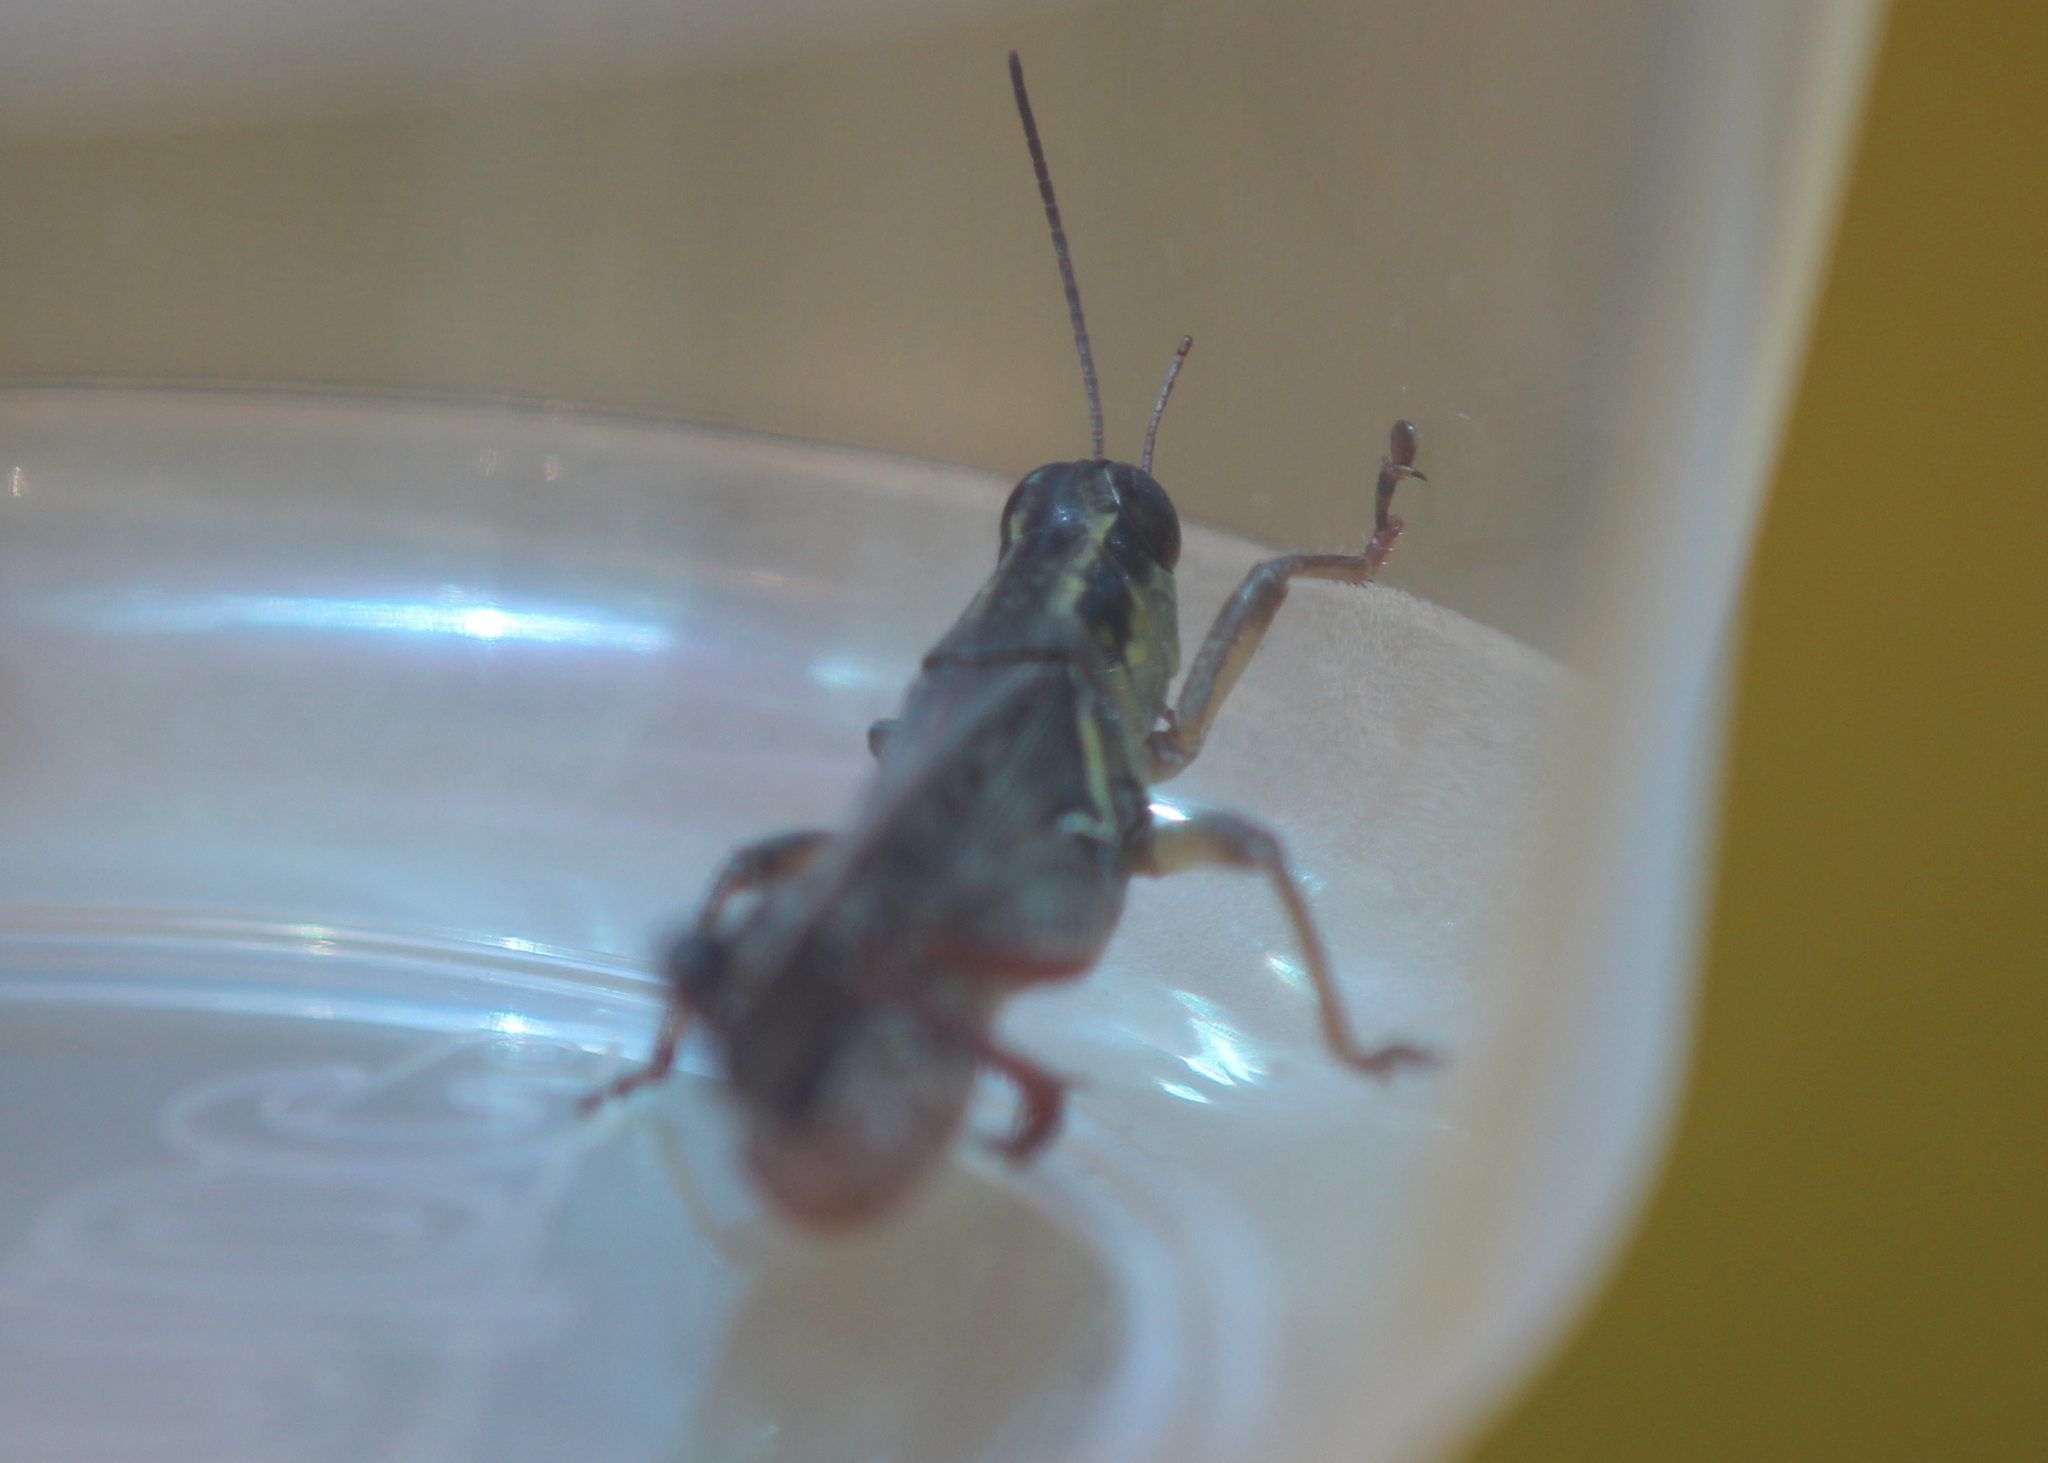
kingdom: Animalia
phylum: Arthropoda
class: Insecta
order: Orthoptera
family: Acrididae
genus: Melanoplus
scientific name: Melanoplus femurrubrum
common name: Red-legged grasshopper
